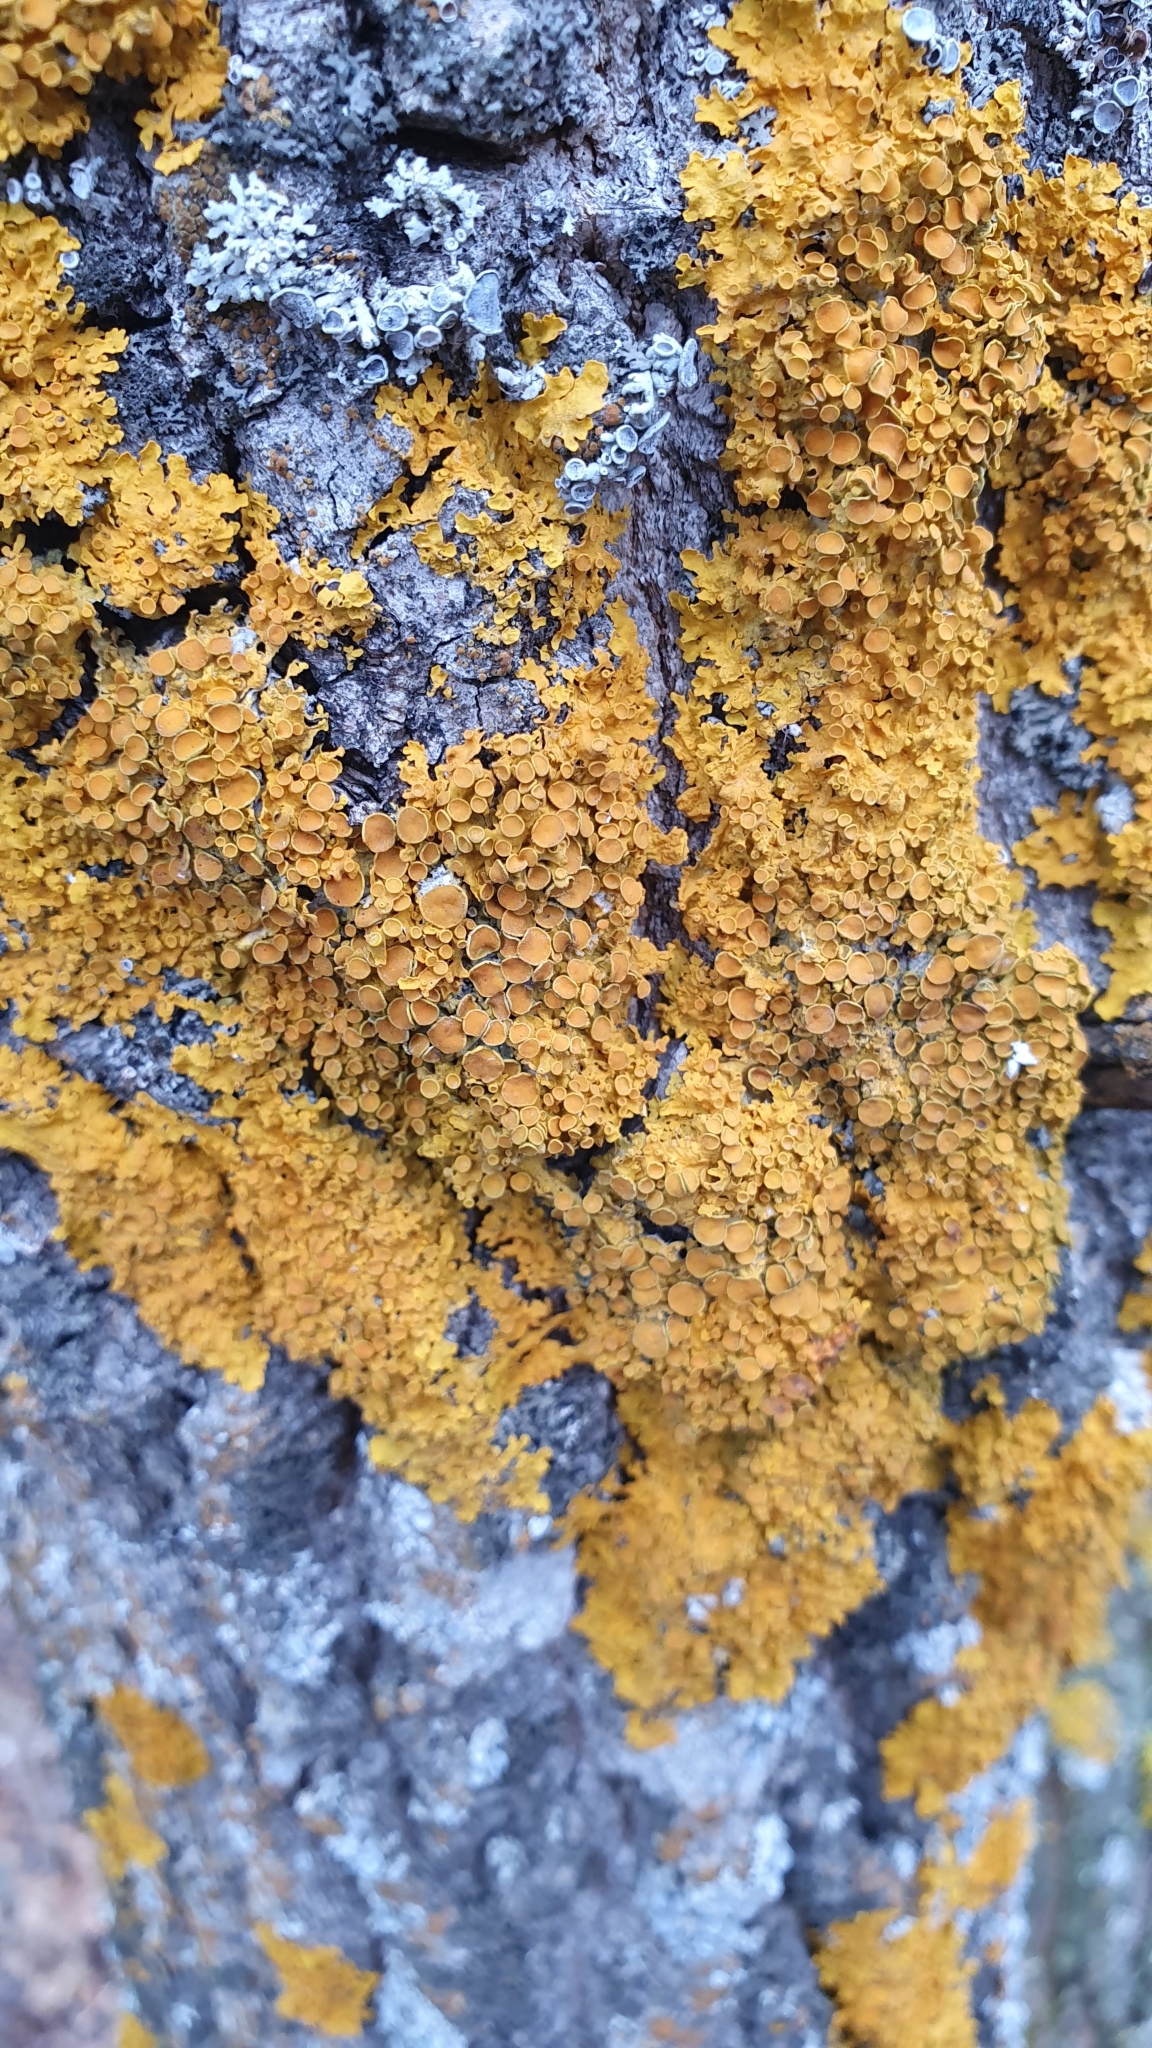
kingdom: Fungi
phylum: Ascomycota
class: Lecanoromycetes
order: Teloschistales
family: Teloschistaceae
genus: Xanthoria
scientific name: Xanthoria parietina
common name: Common orange lichen
